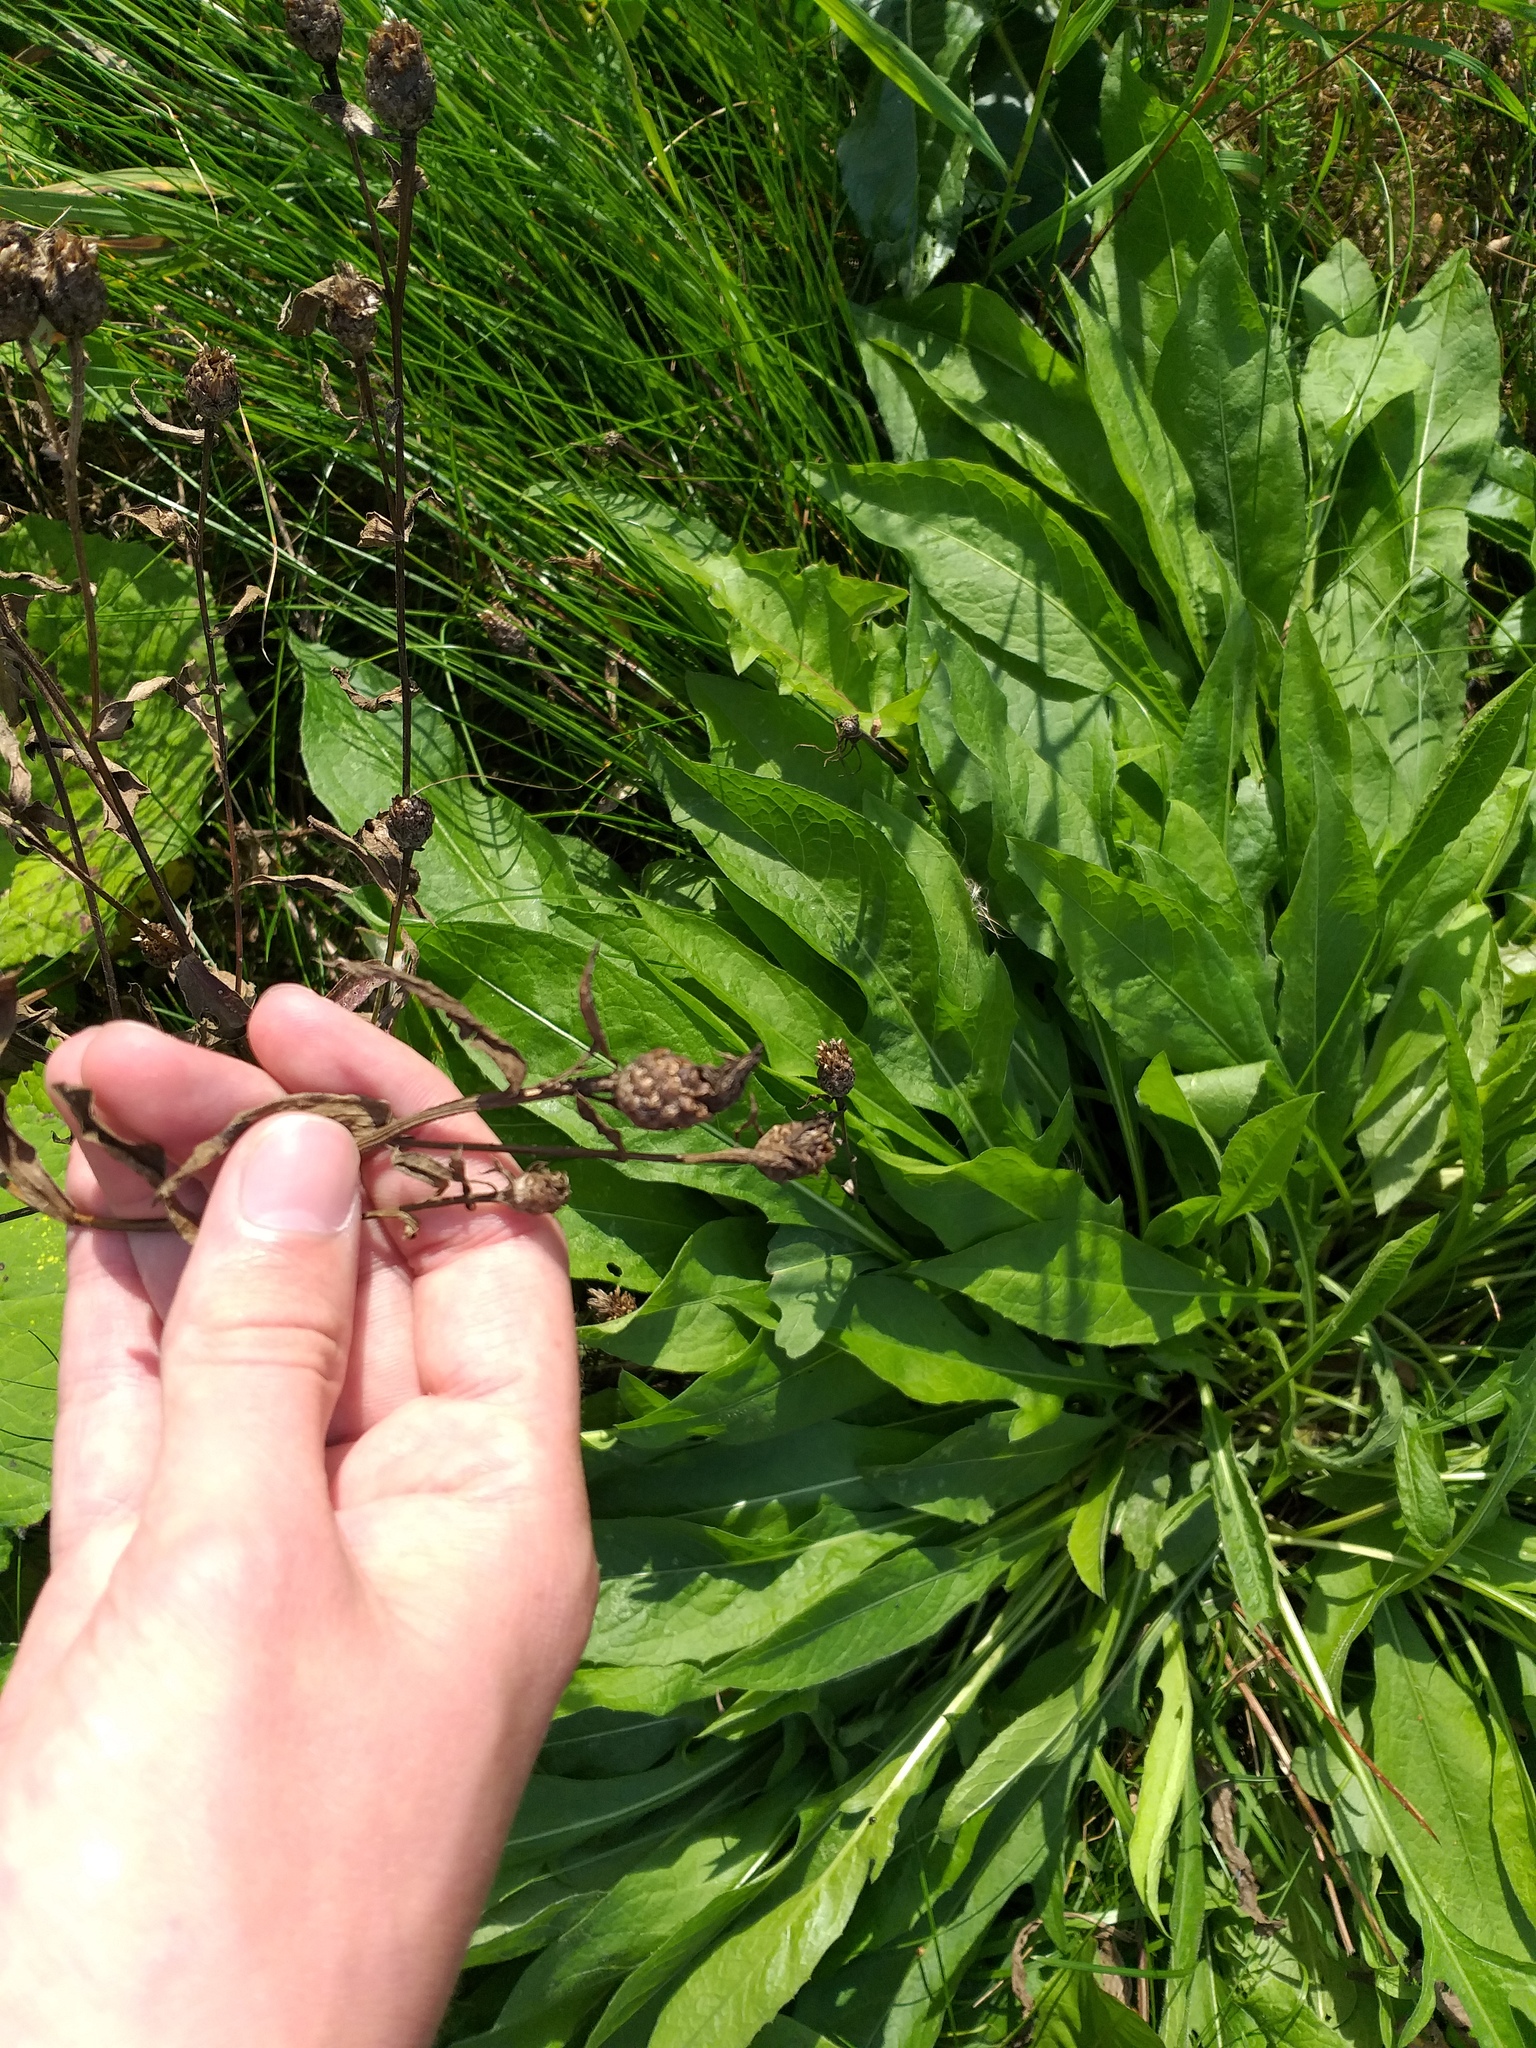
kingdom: Plantae
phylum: Tracheophyta
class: Magnoliopsida
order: Asterales
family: Asteraceae
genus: Centaurea
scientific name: Centaurea jacea
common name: Brown knapweed
